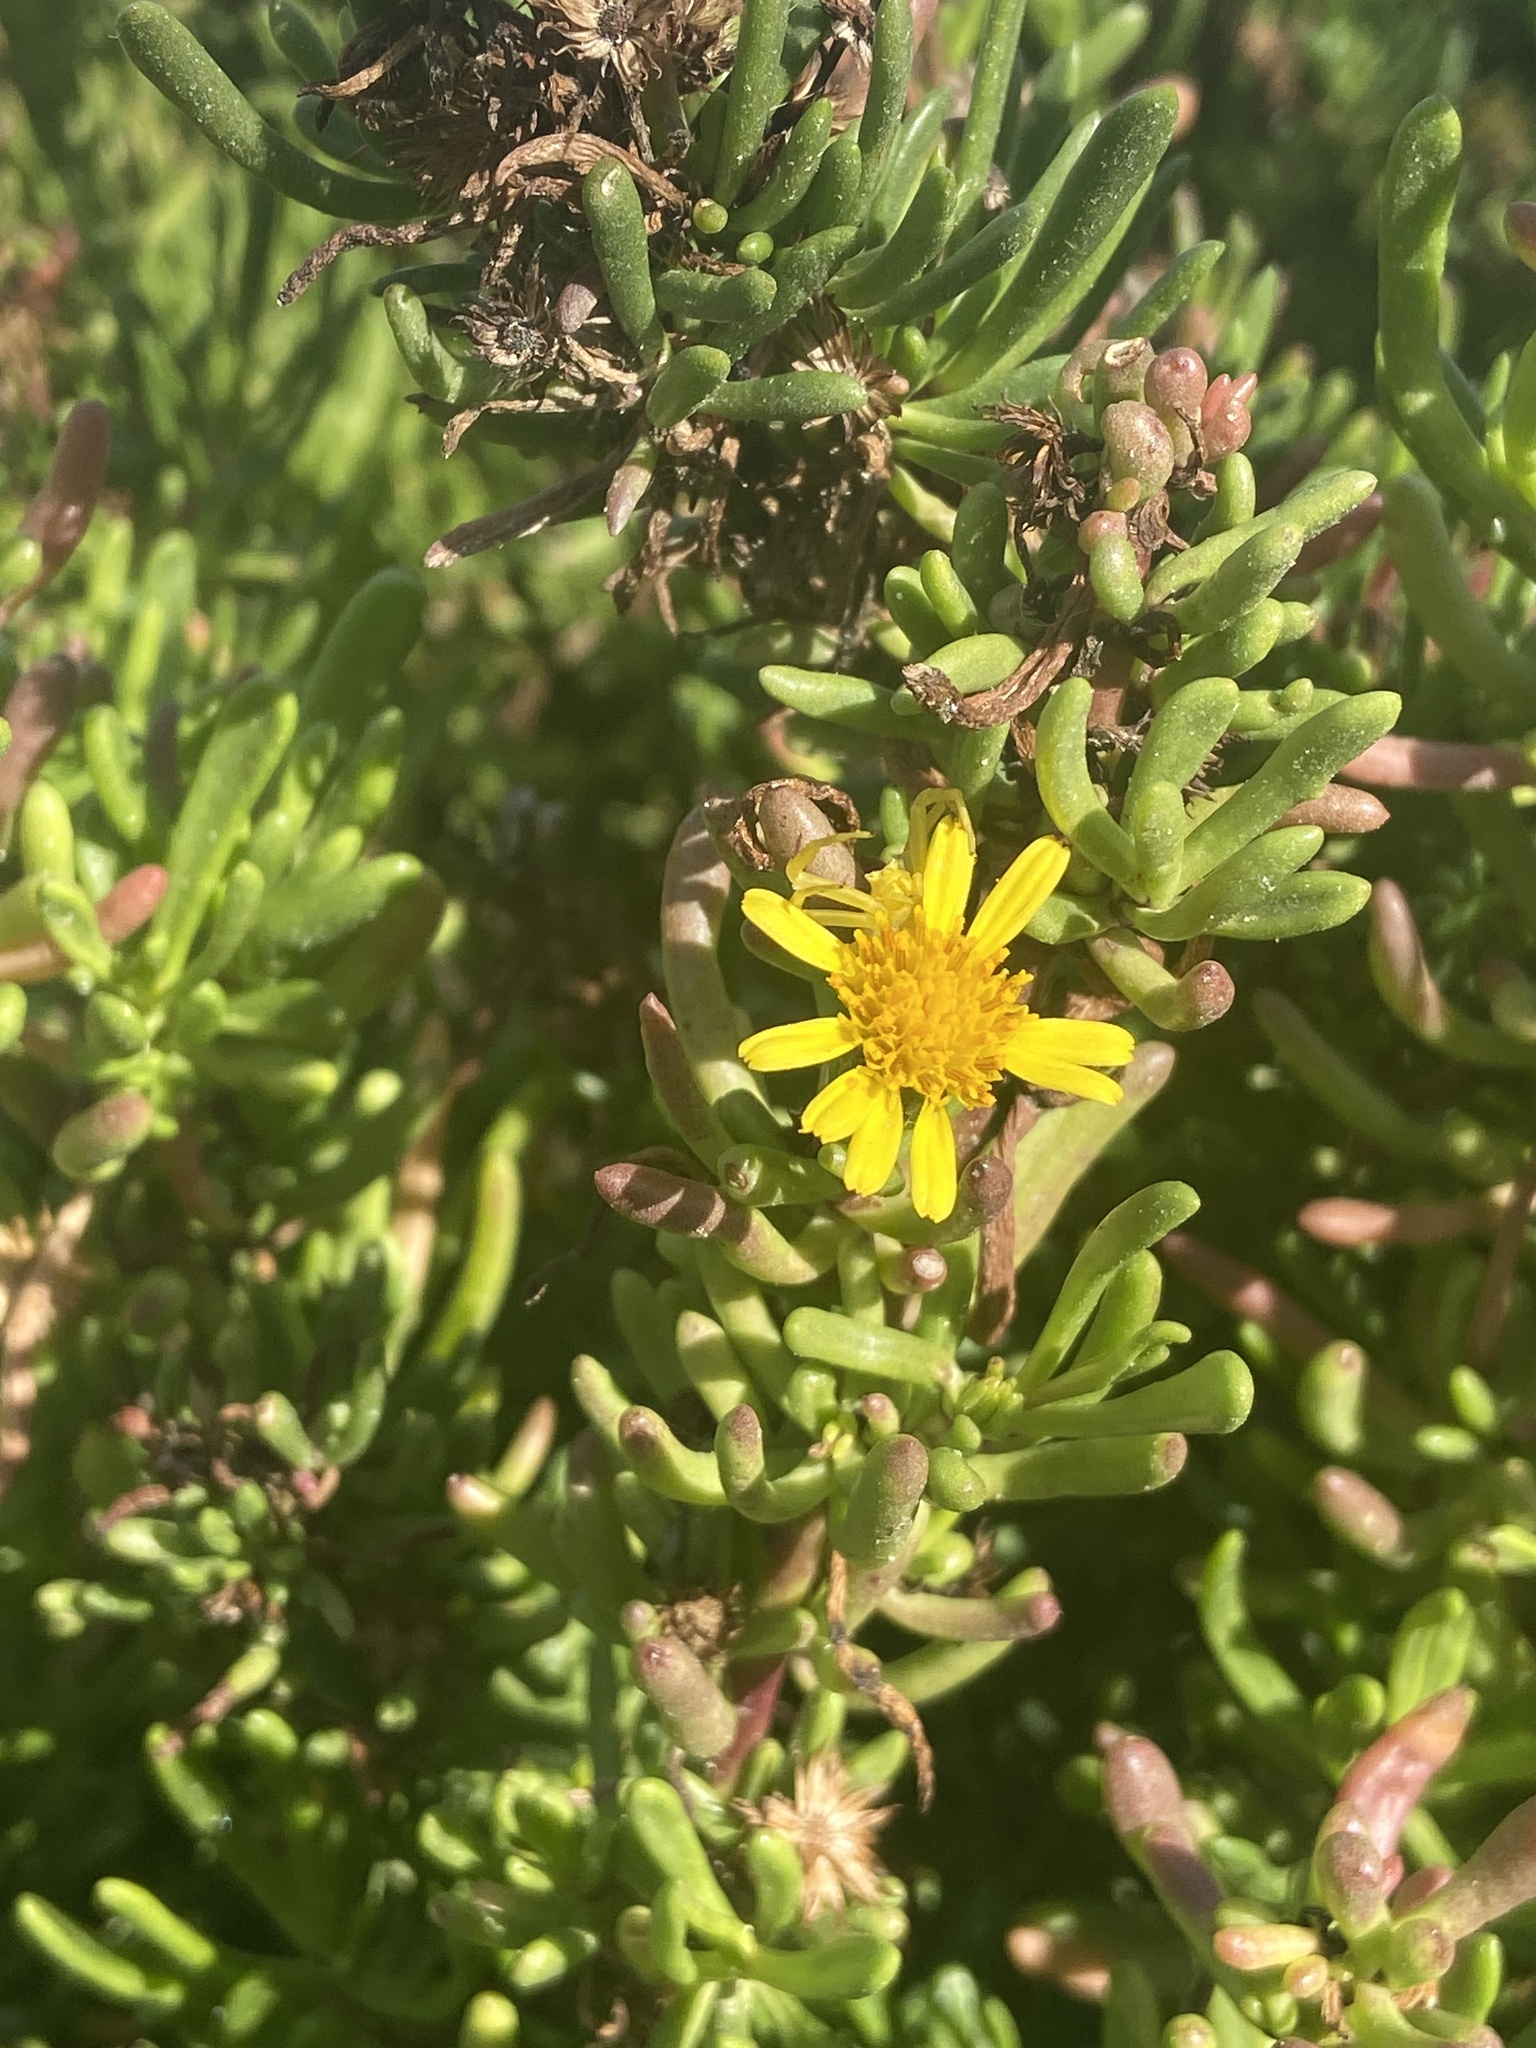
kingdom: Plantae
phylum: Tracheophyta
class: Magnoliopsida
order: Asterales
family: Asteraceae
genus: Limbarda
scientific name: Limbarda crithmoides
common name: Golden samphire
